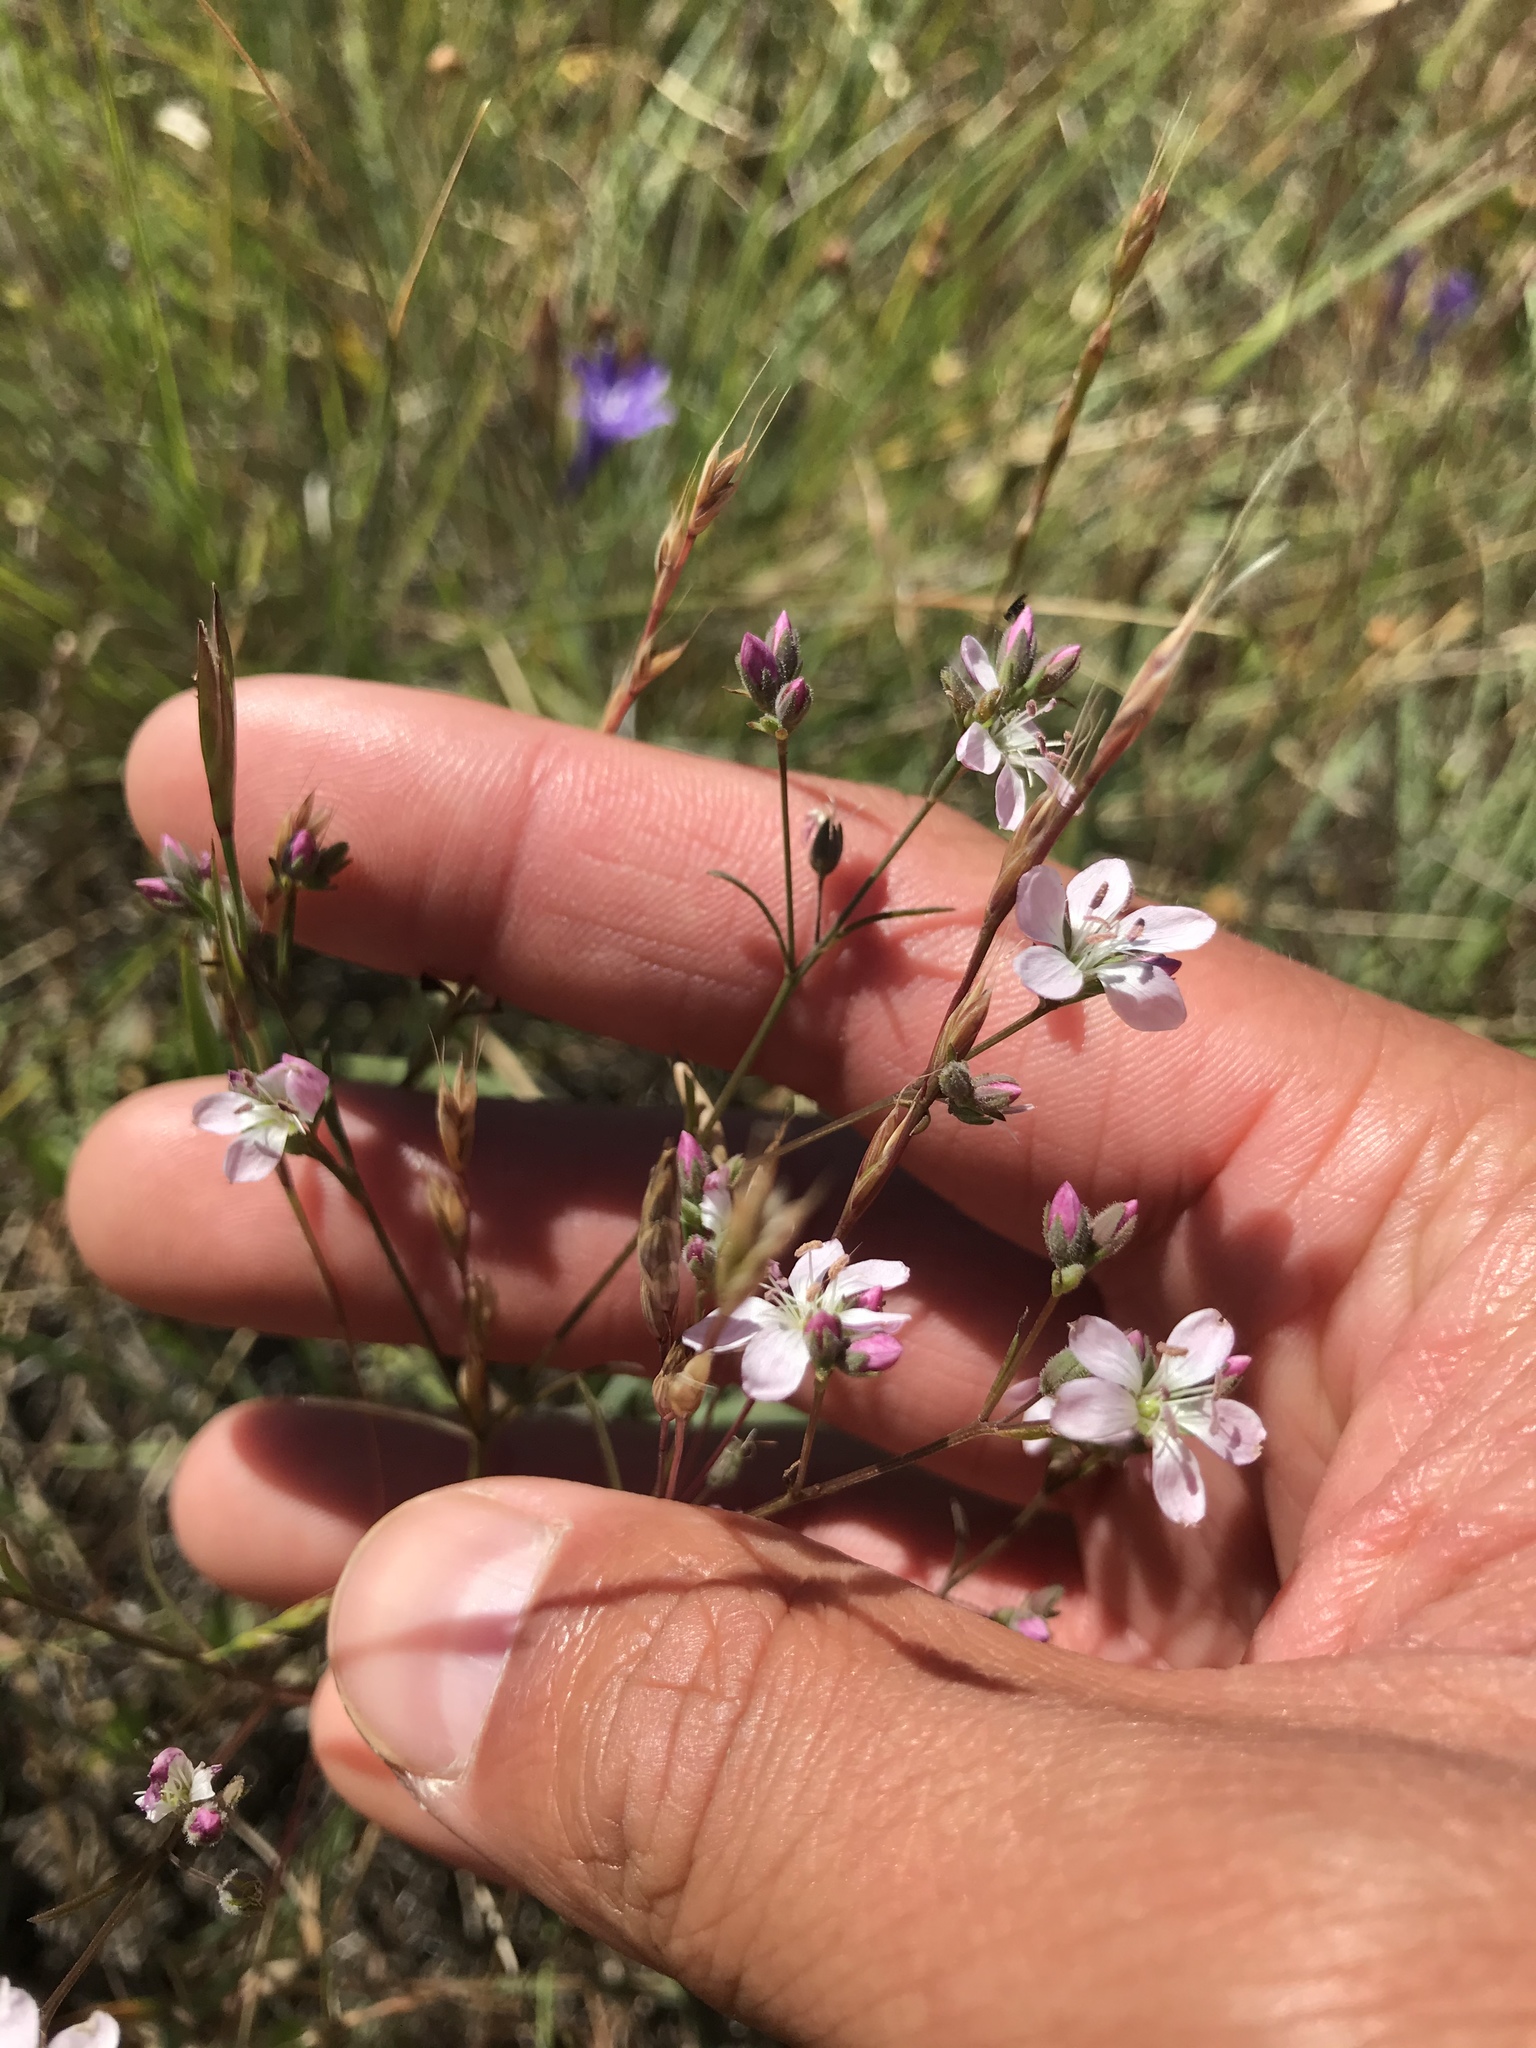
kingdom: Plantae
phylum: Tracheophyta
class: Magnoliopsida
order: Malpighiales
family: Linaceae
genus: Hesperolinon
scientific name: Hesperolinon congestum
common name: Marin dwarf-flax
